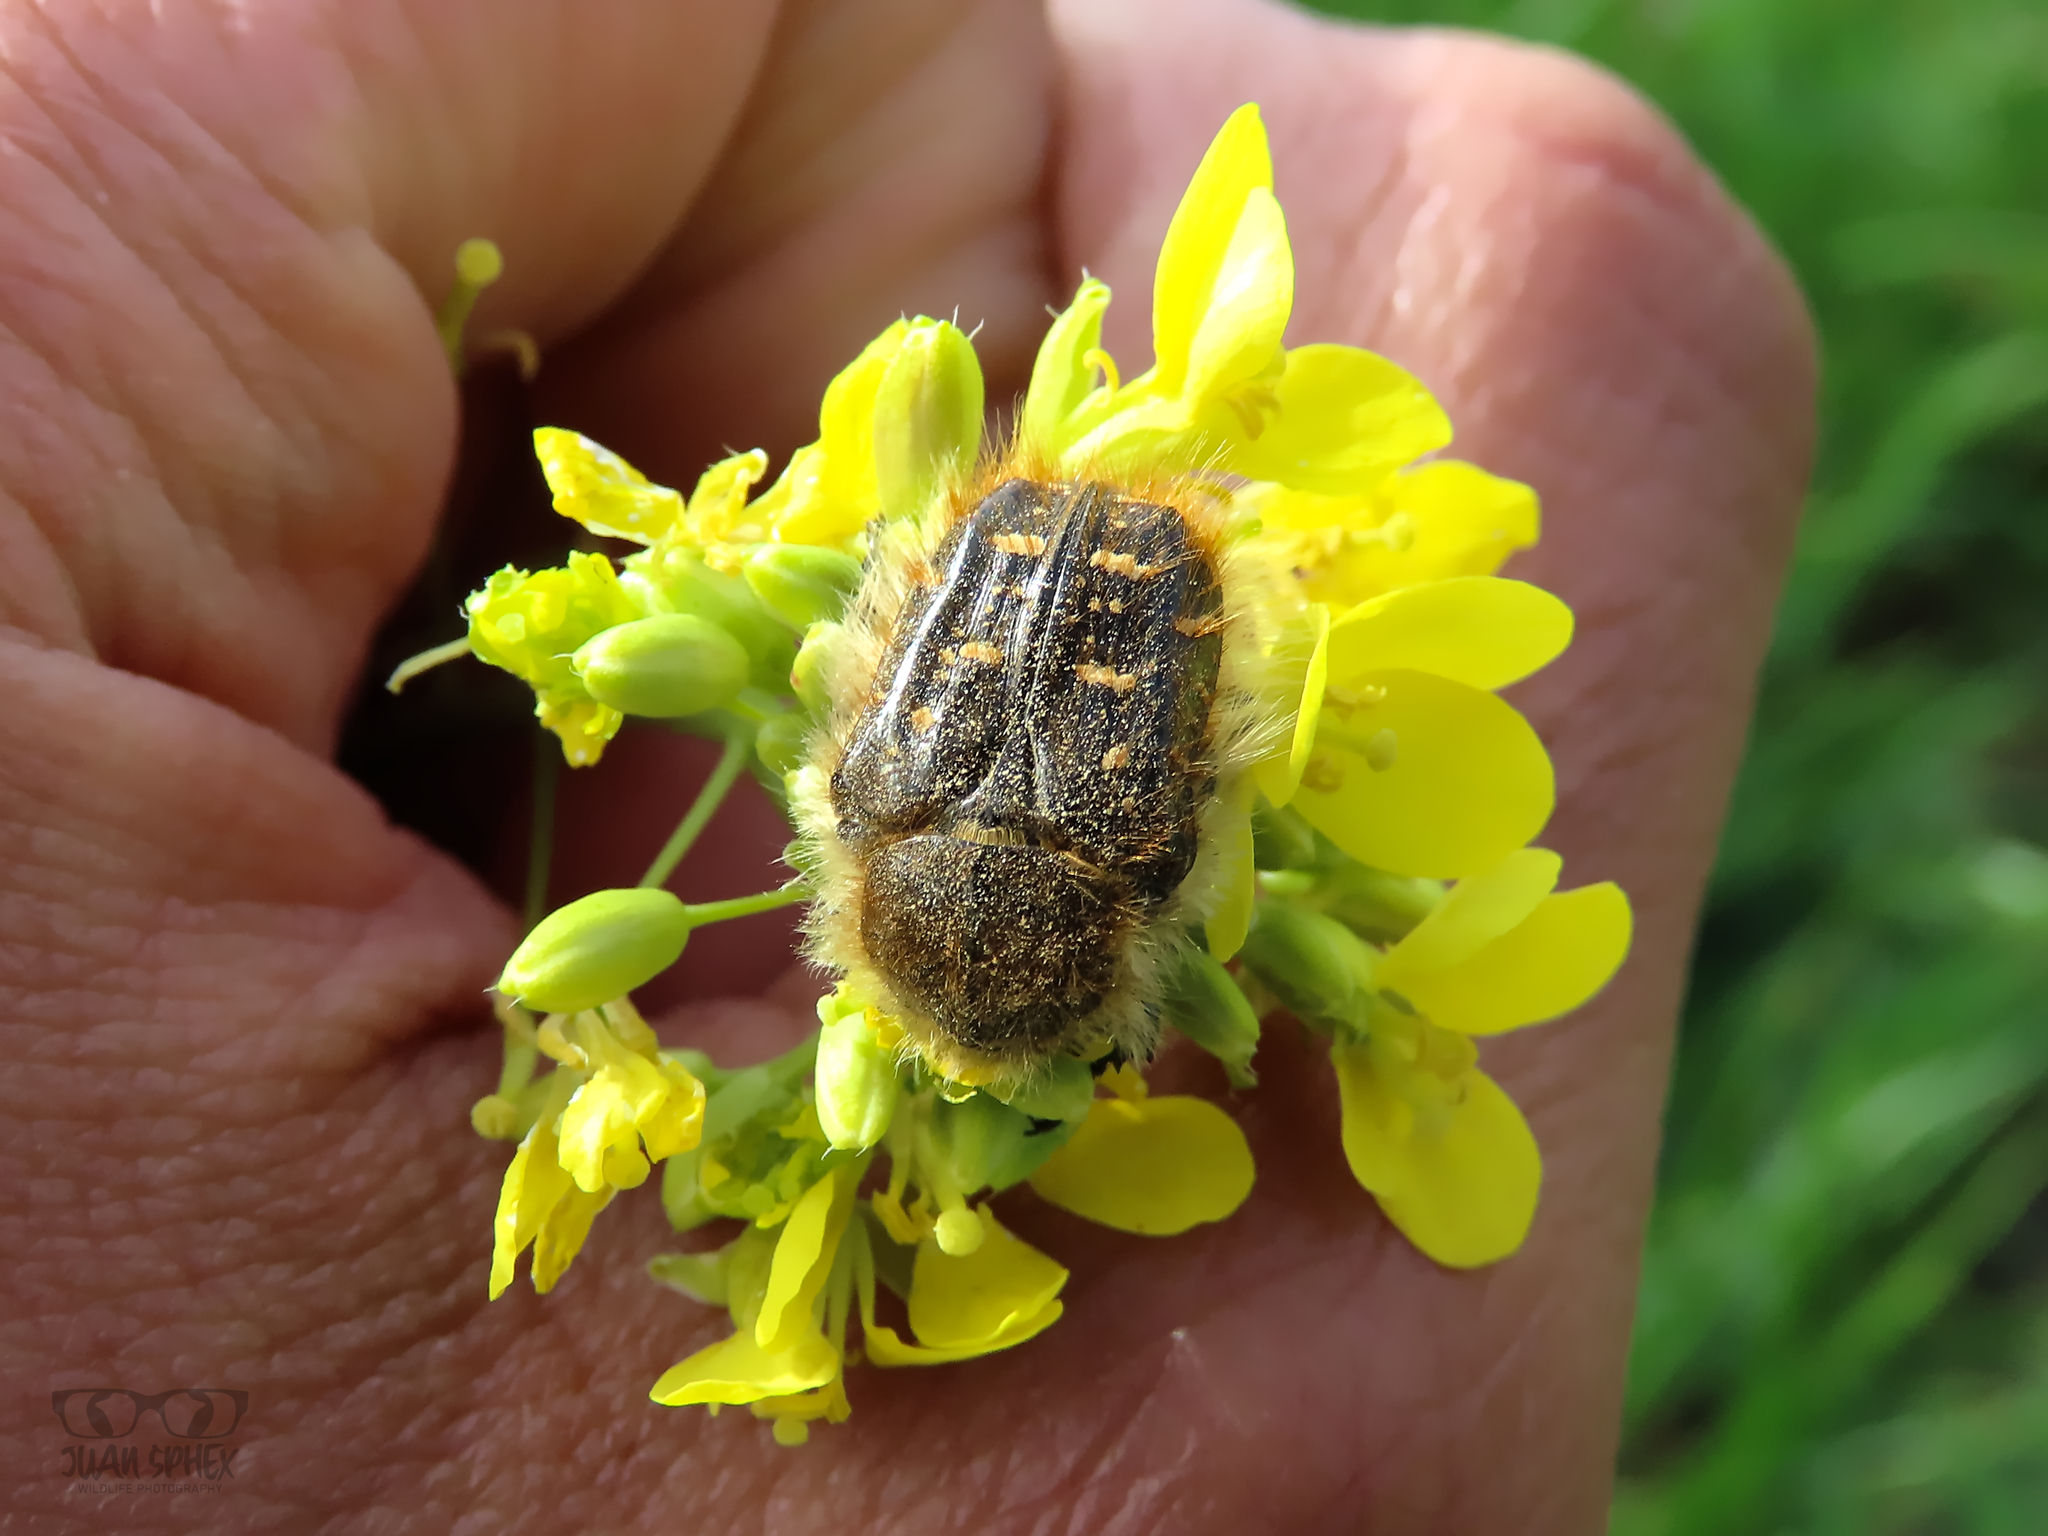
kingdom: Animalia
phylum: Arthropoda
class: Insecta
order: Coleoptera
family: Scarabaeidae
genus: Tropinota
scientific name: Tropinota squalida
